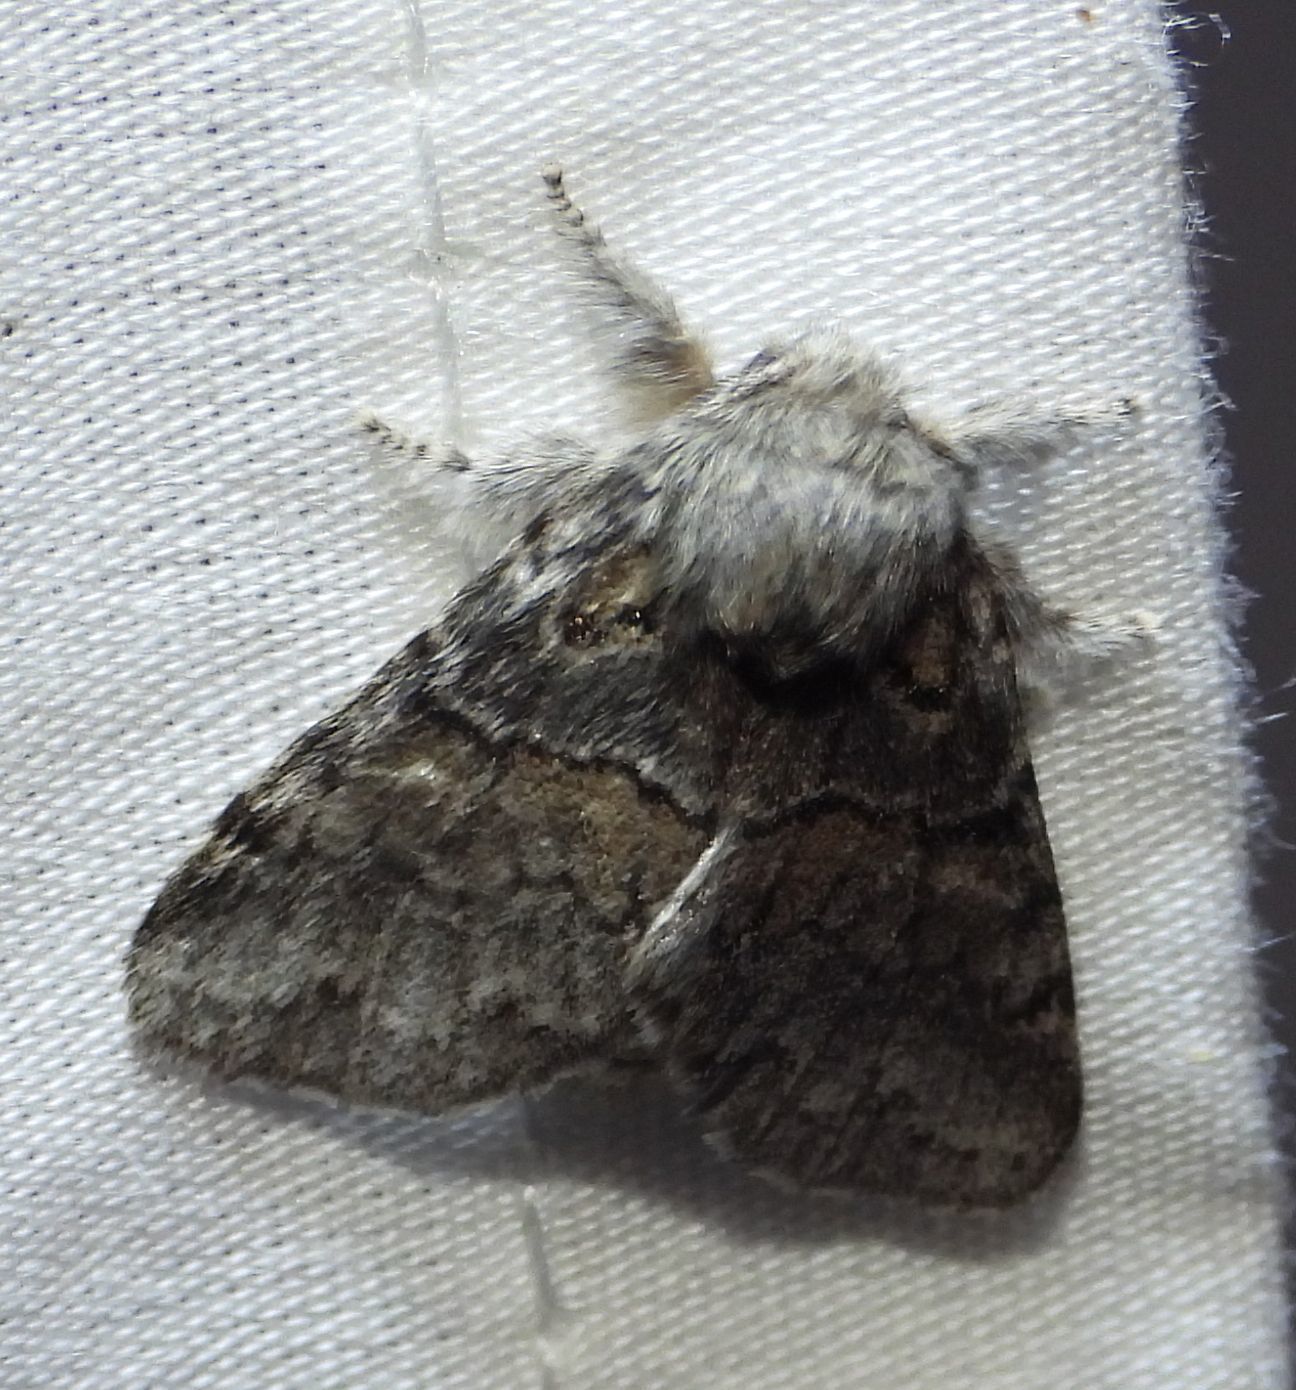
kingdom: Animalia
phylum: Arthropoda
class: Insecta
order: Lepidoptera
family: Notodontidae
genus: Gluphisia
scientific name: Gluphisia septentrionis
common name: Common gluphisia
